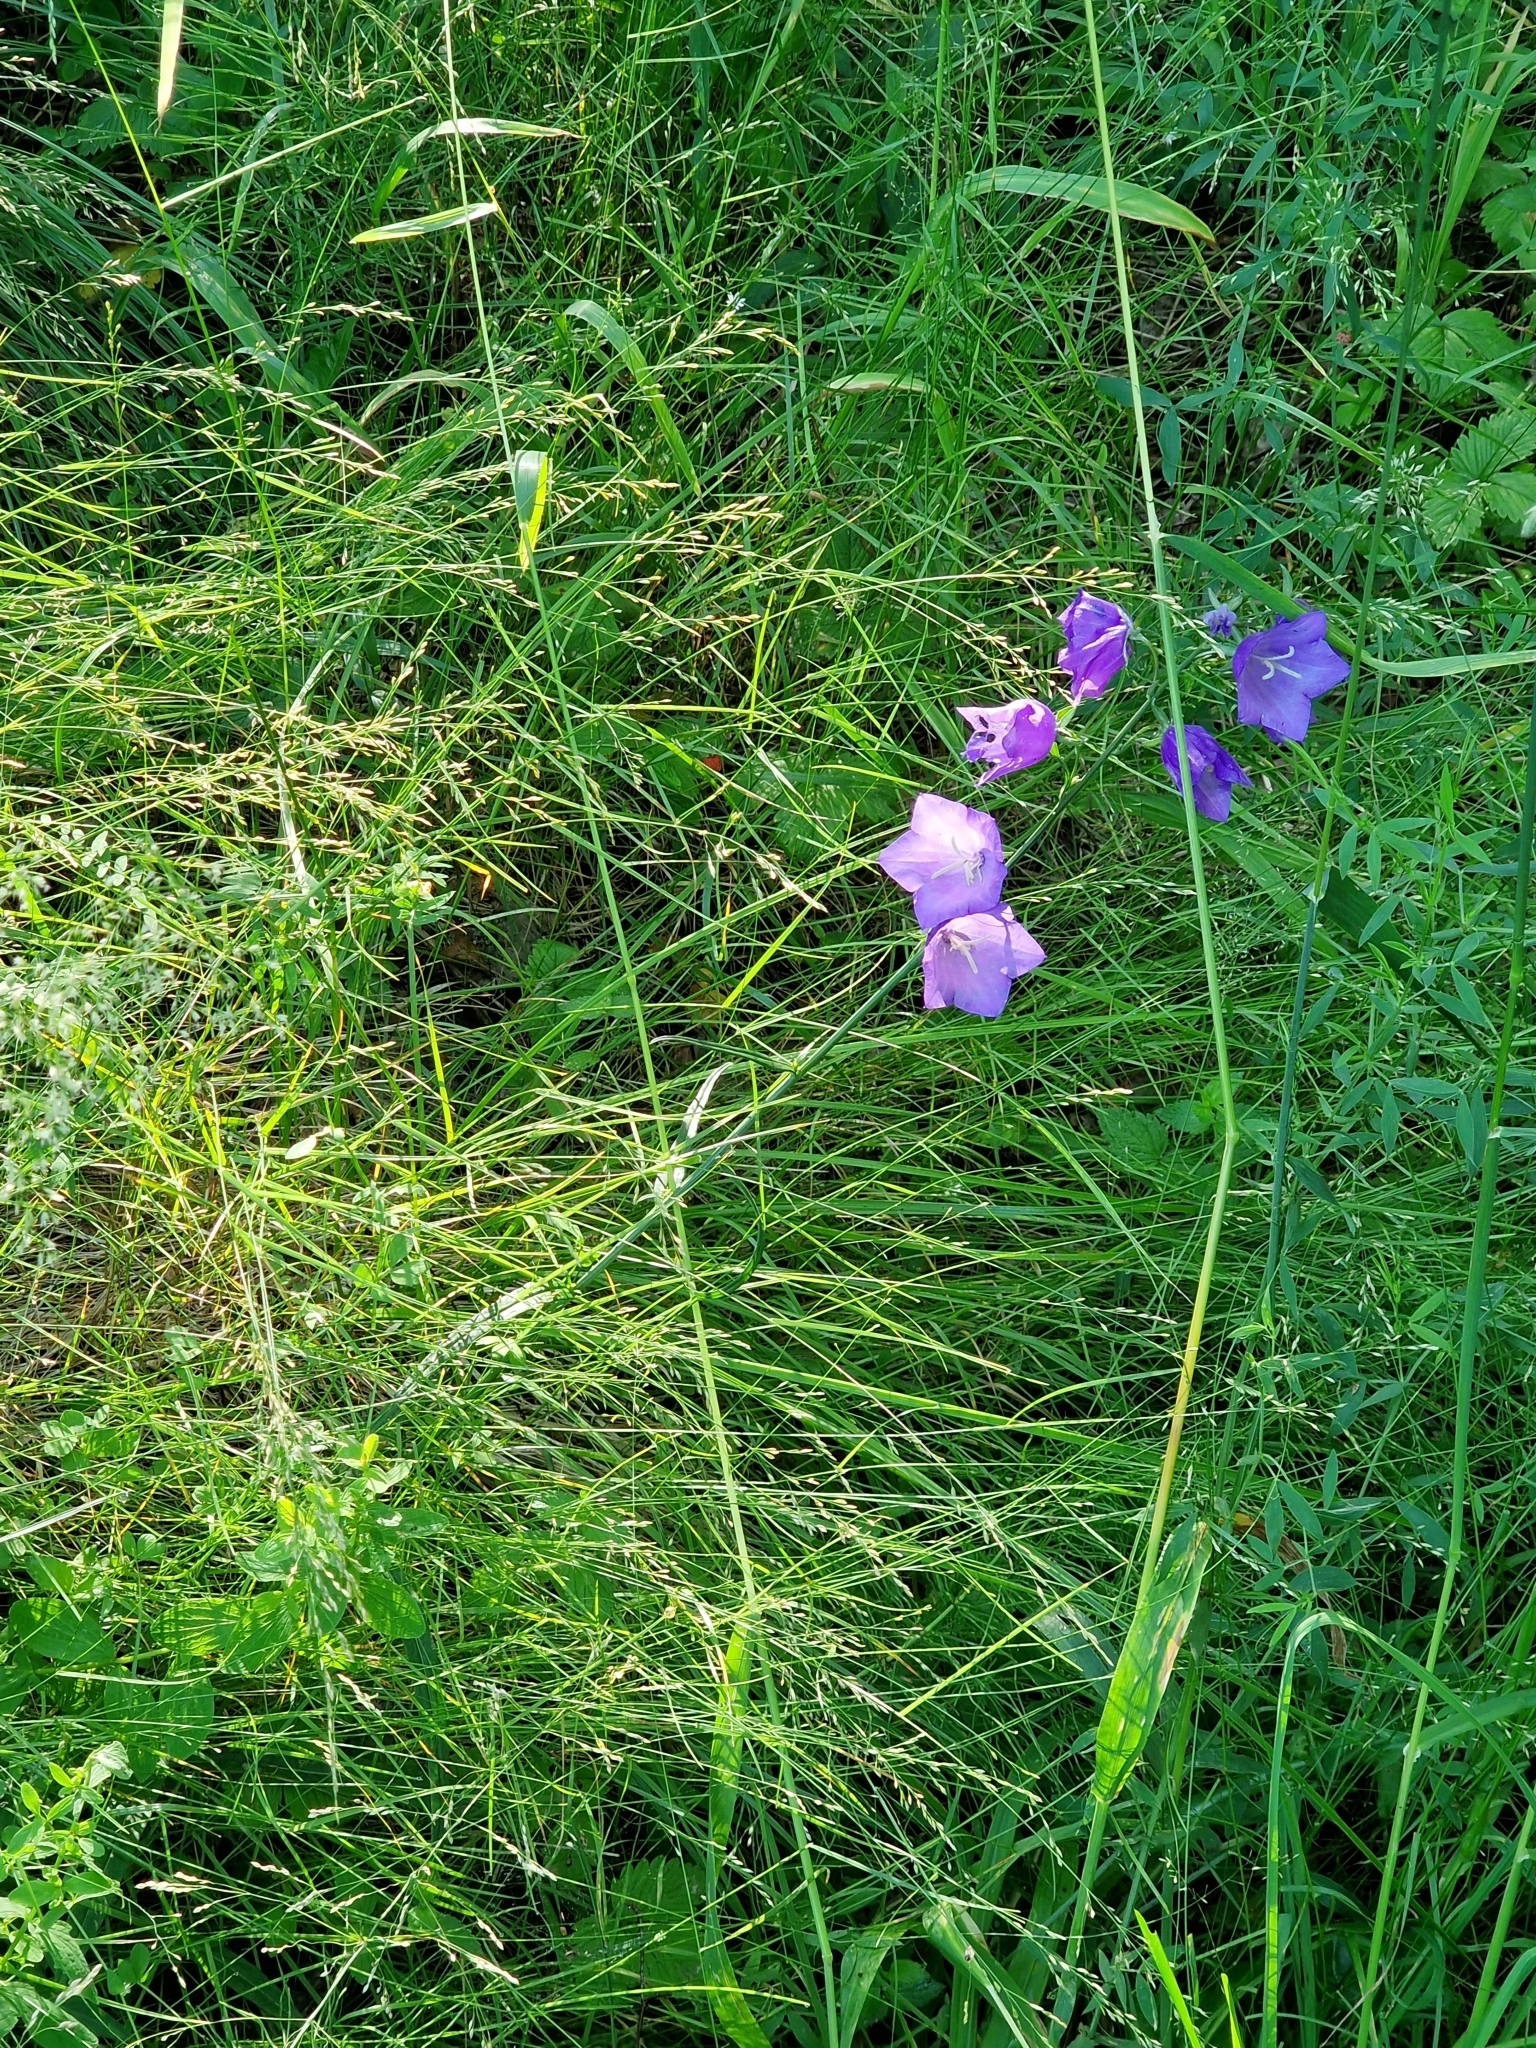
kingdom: Plantae
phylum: Tracheophyta
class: Magnoliopsida
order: Asterales
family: Campanulaceae
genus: Campanula
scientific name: Campanula persicifolia
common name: Peach-leaved bellflower
